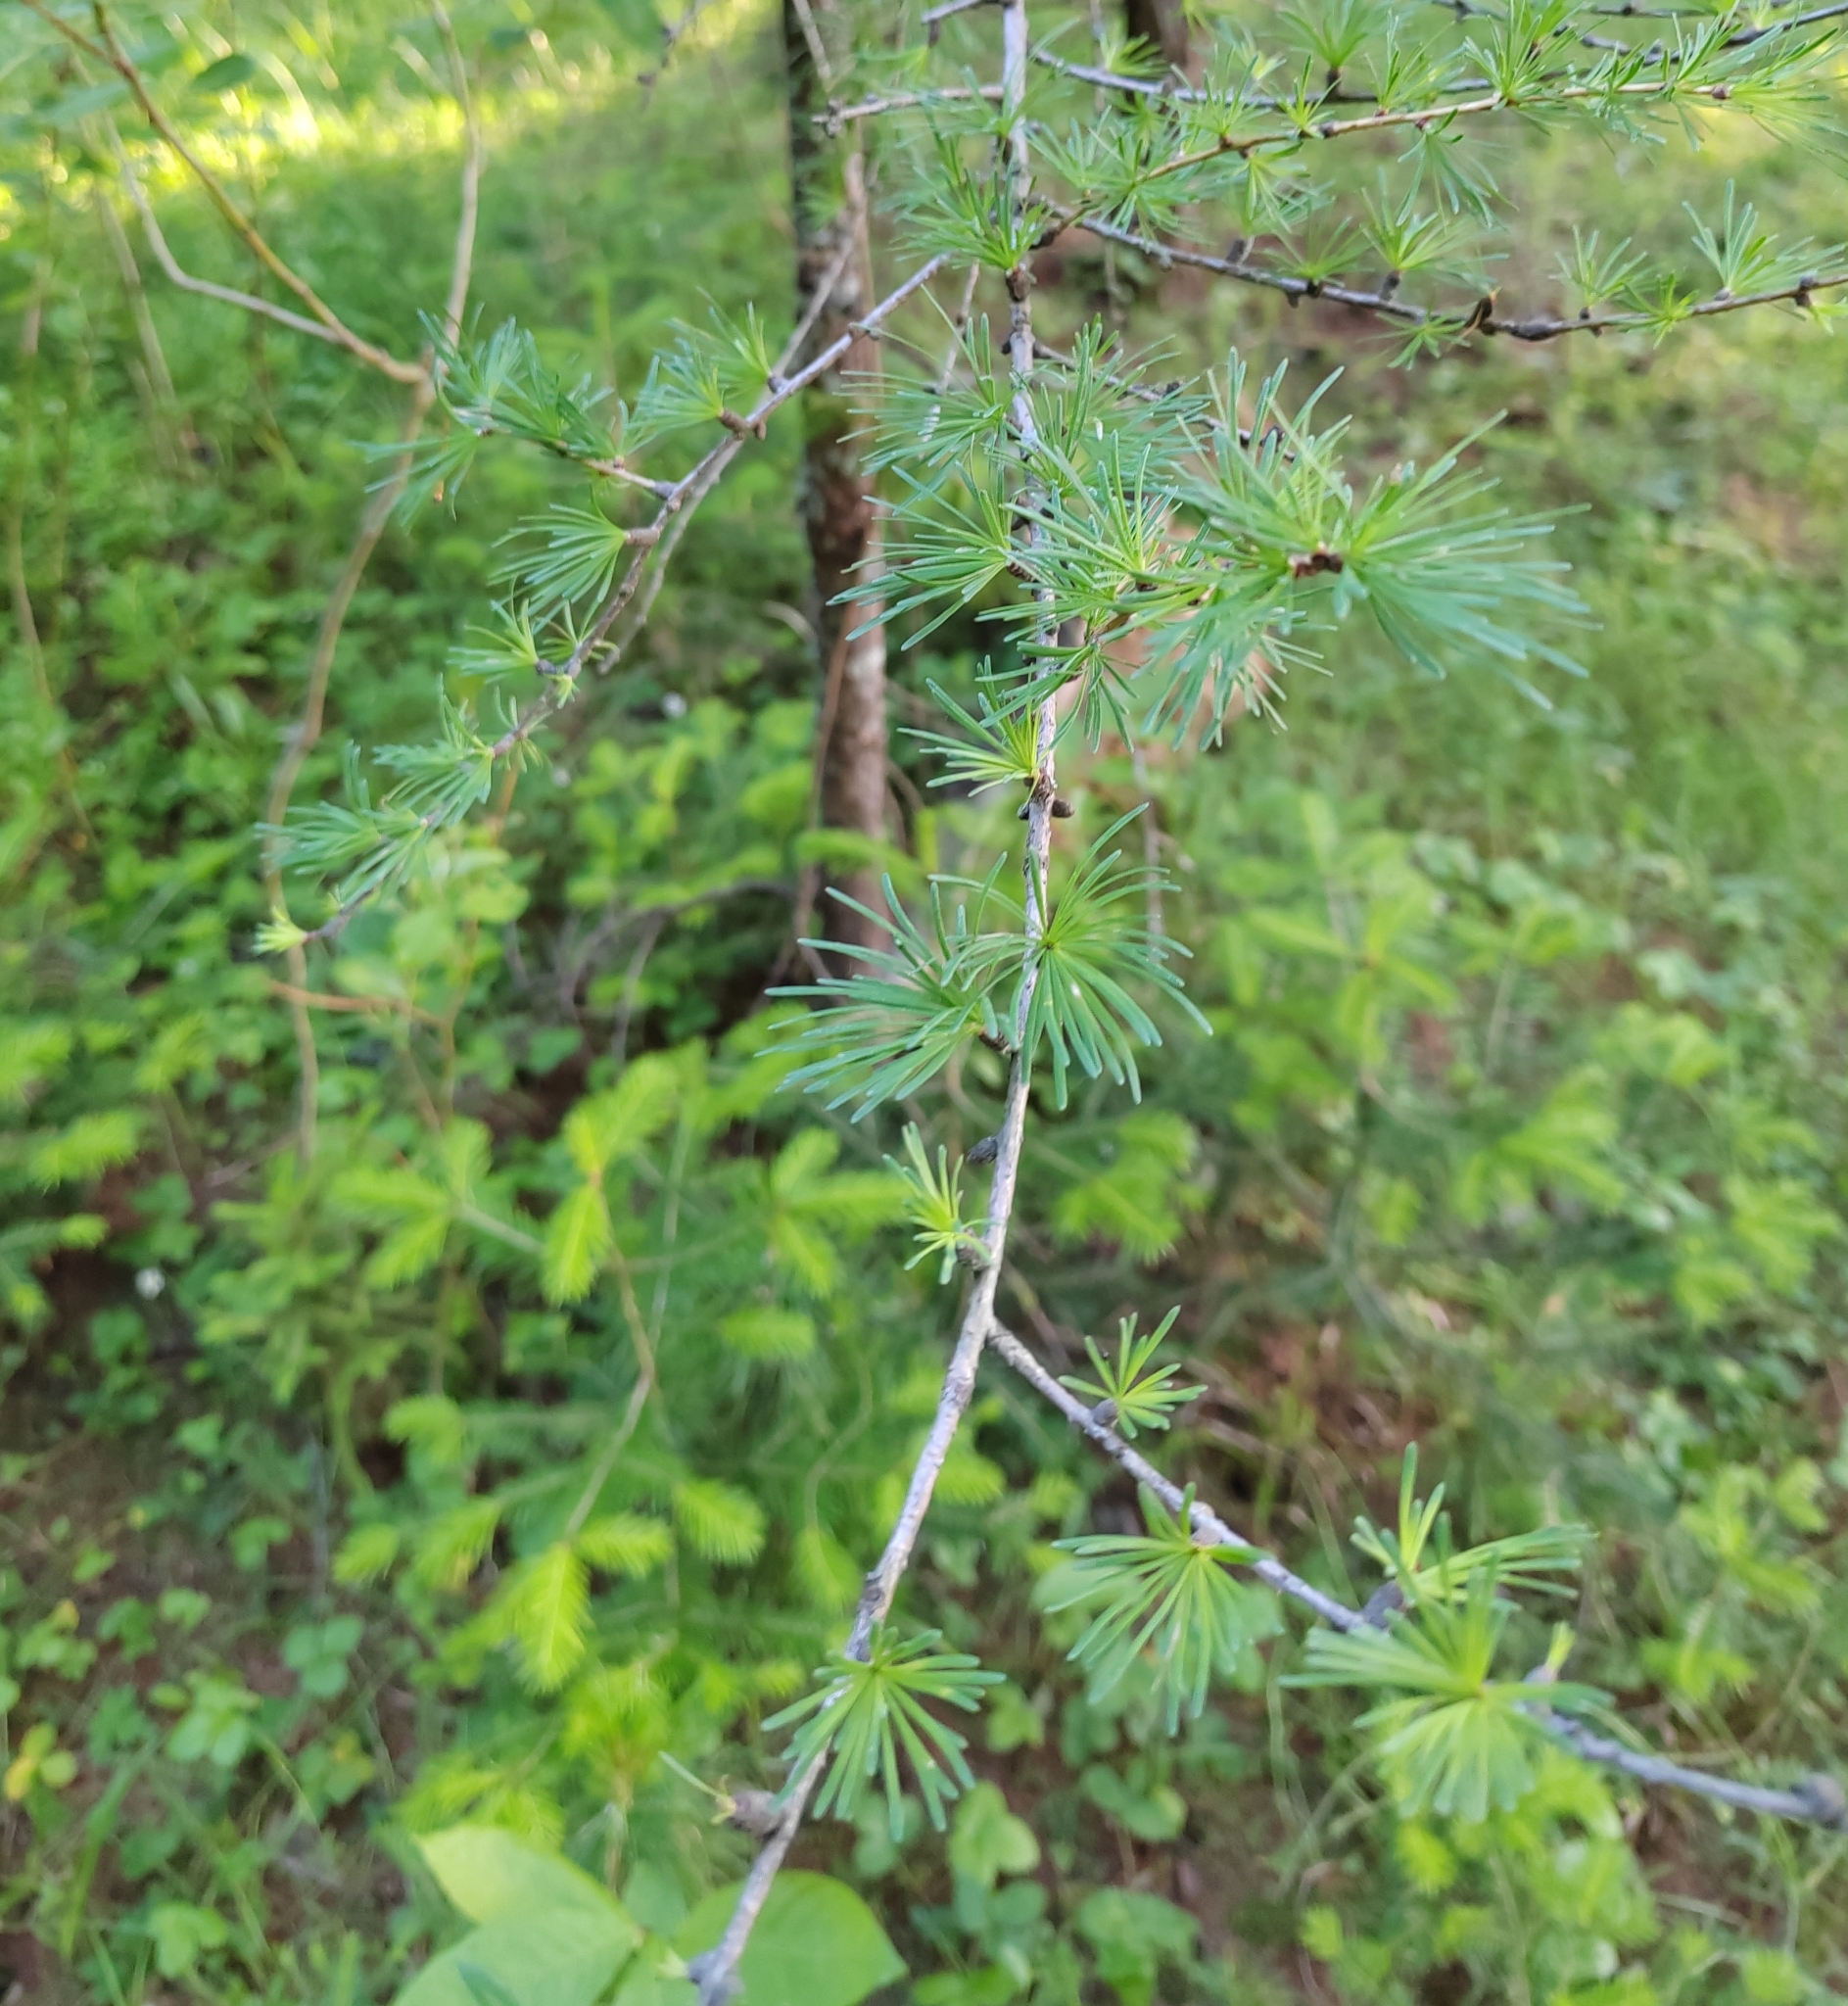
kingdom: Plantae
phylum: Tracheophyta
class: Pinopsida
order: Pinales
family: Pinaceae
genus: Larix
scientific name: Larix sibirica
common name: Siberian larch
